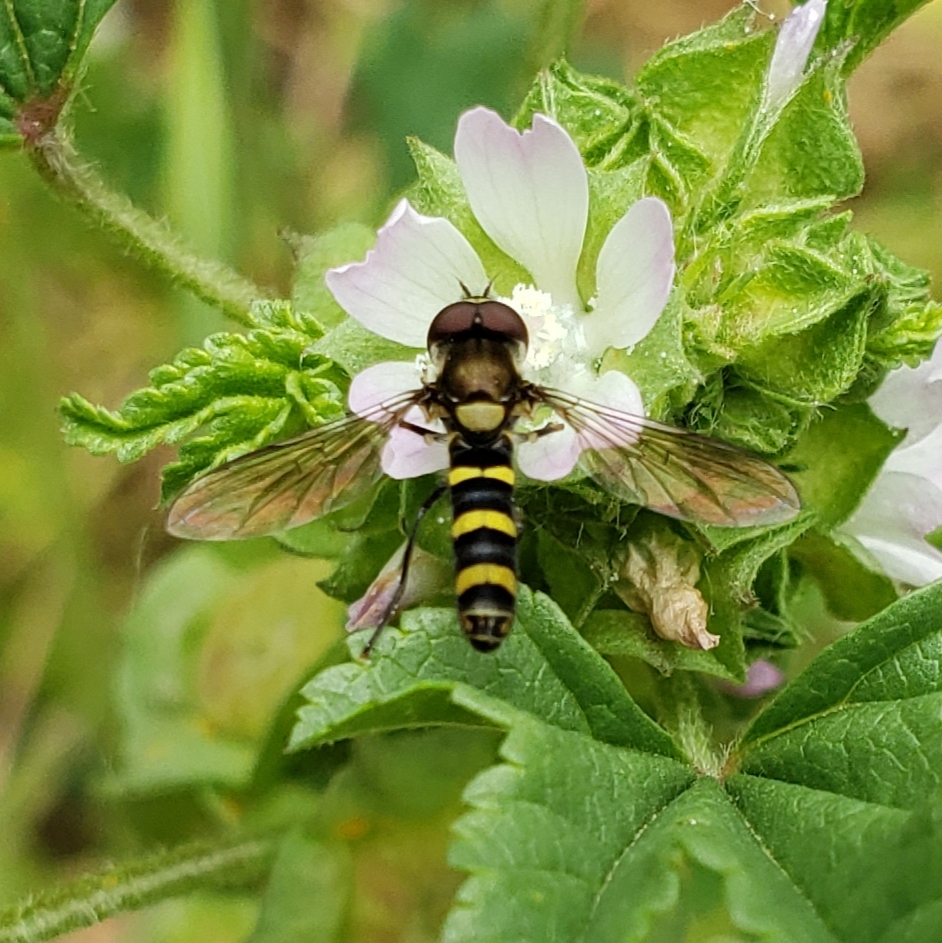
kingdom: Animalia
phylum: Arthropoda
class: Insecta
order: Diptera
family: Syrphidae
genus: Fazia
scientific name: Fazia micrura
